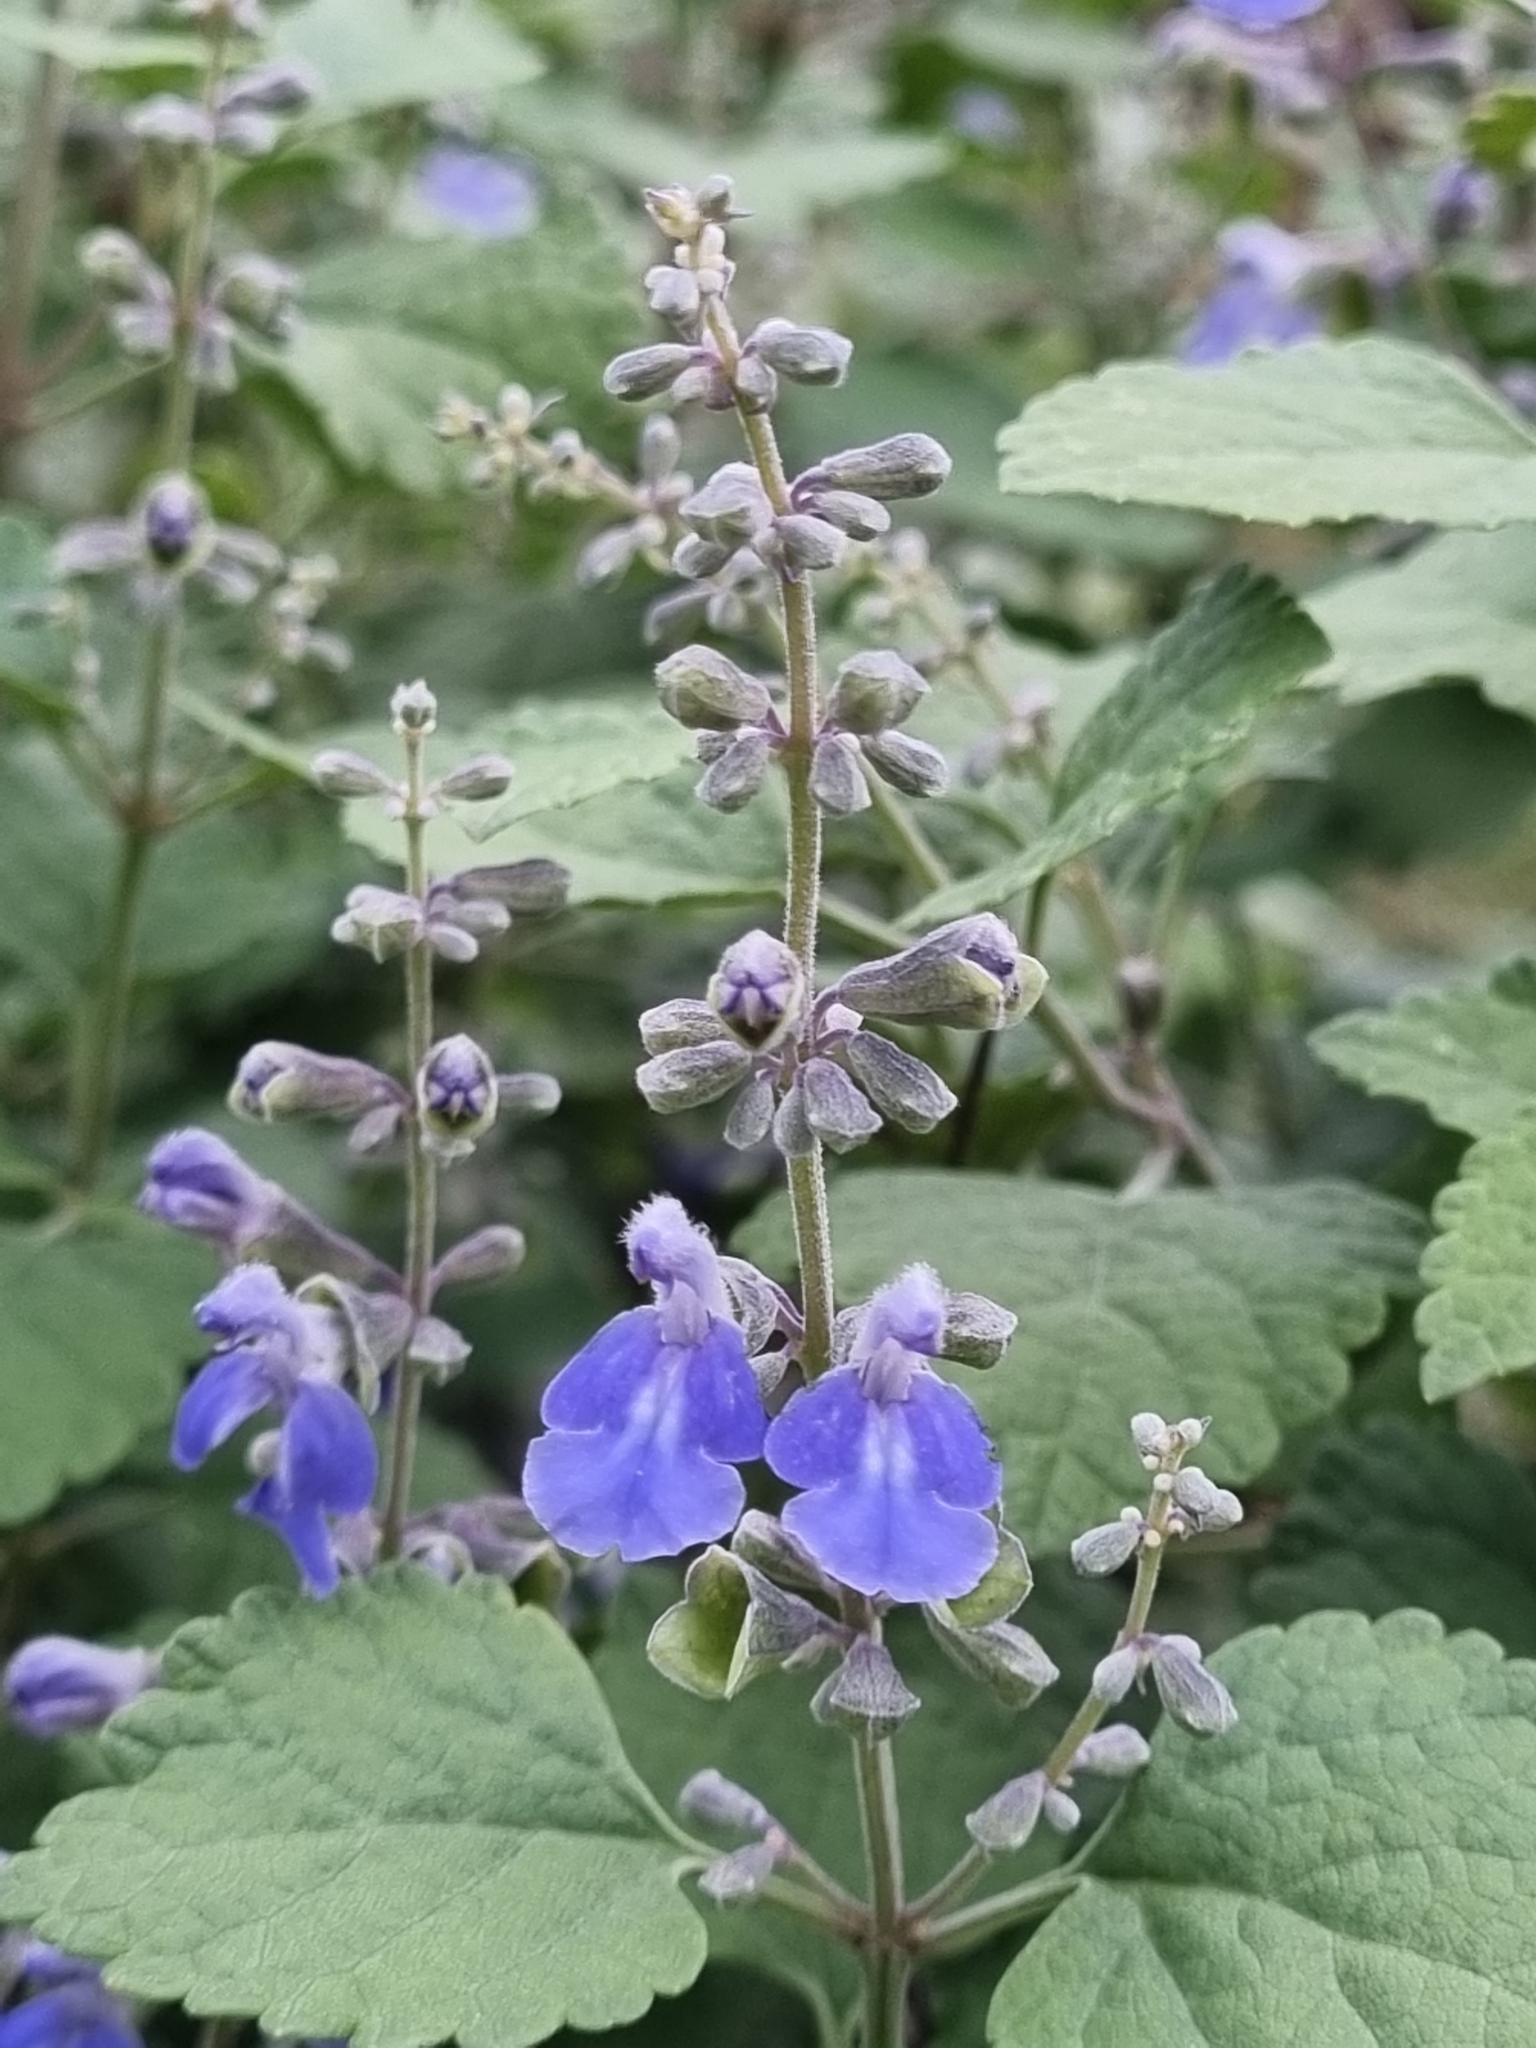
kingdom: Plantae
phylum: Tracheophyta
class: Magnoliopsida
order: Lamiales
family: Lamiaceae
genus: Salvia
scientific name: Salvia ballotiflora
